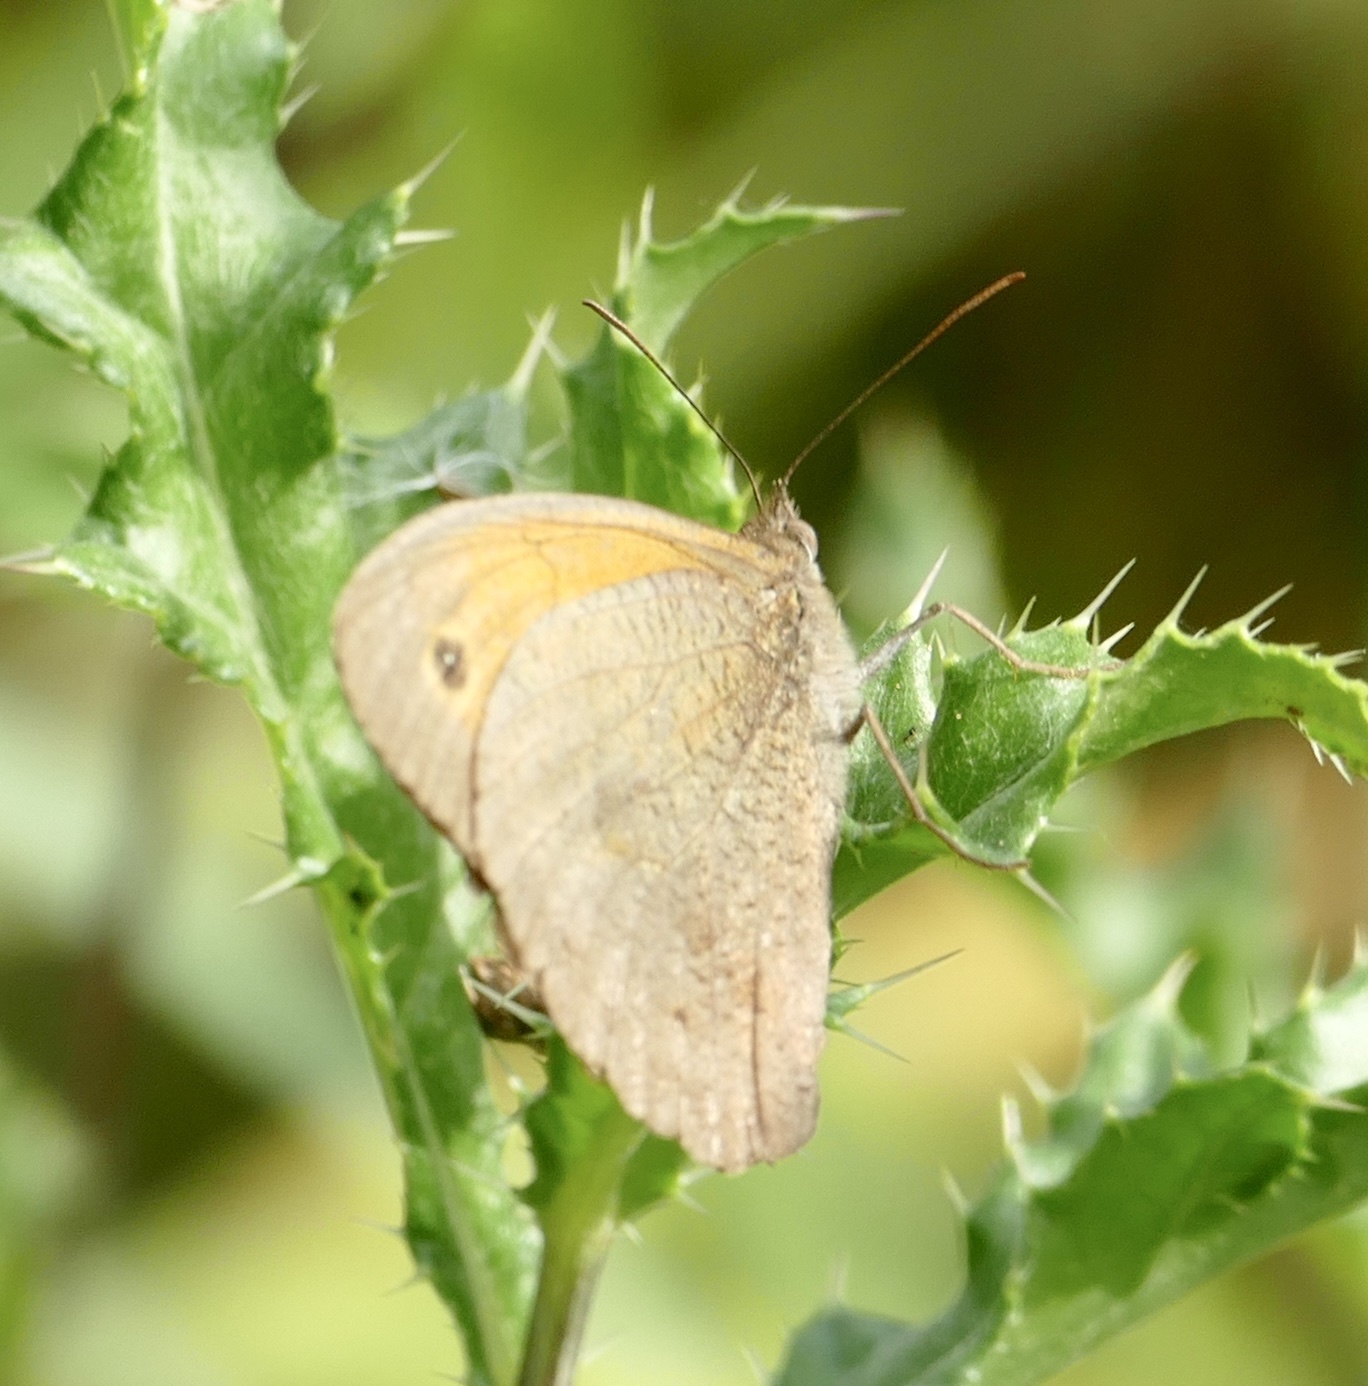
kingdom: Animalia
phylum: Arthropoda
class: Insecta
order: Lepidoptera
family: Nymphalidae
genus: Maniola
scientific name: Maniola jurtina
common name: Meadow brown
